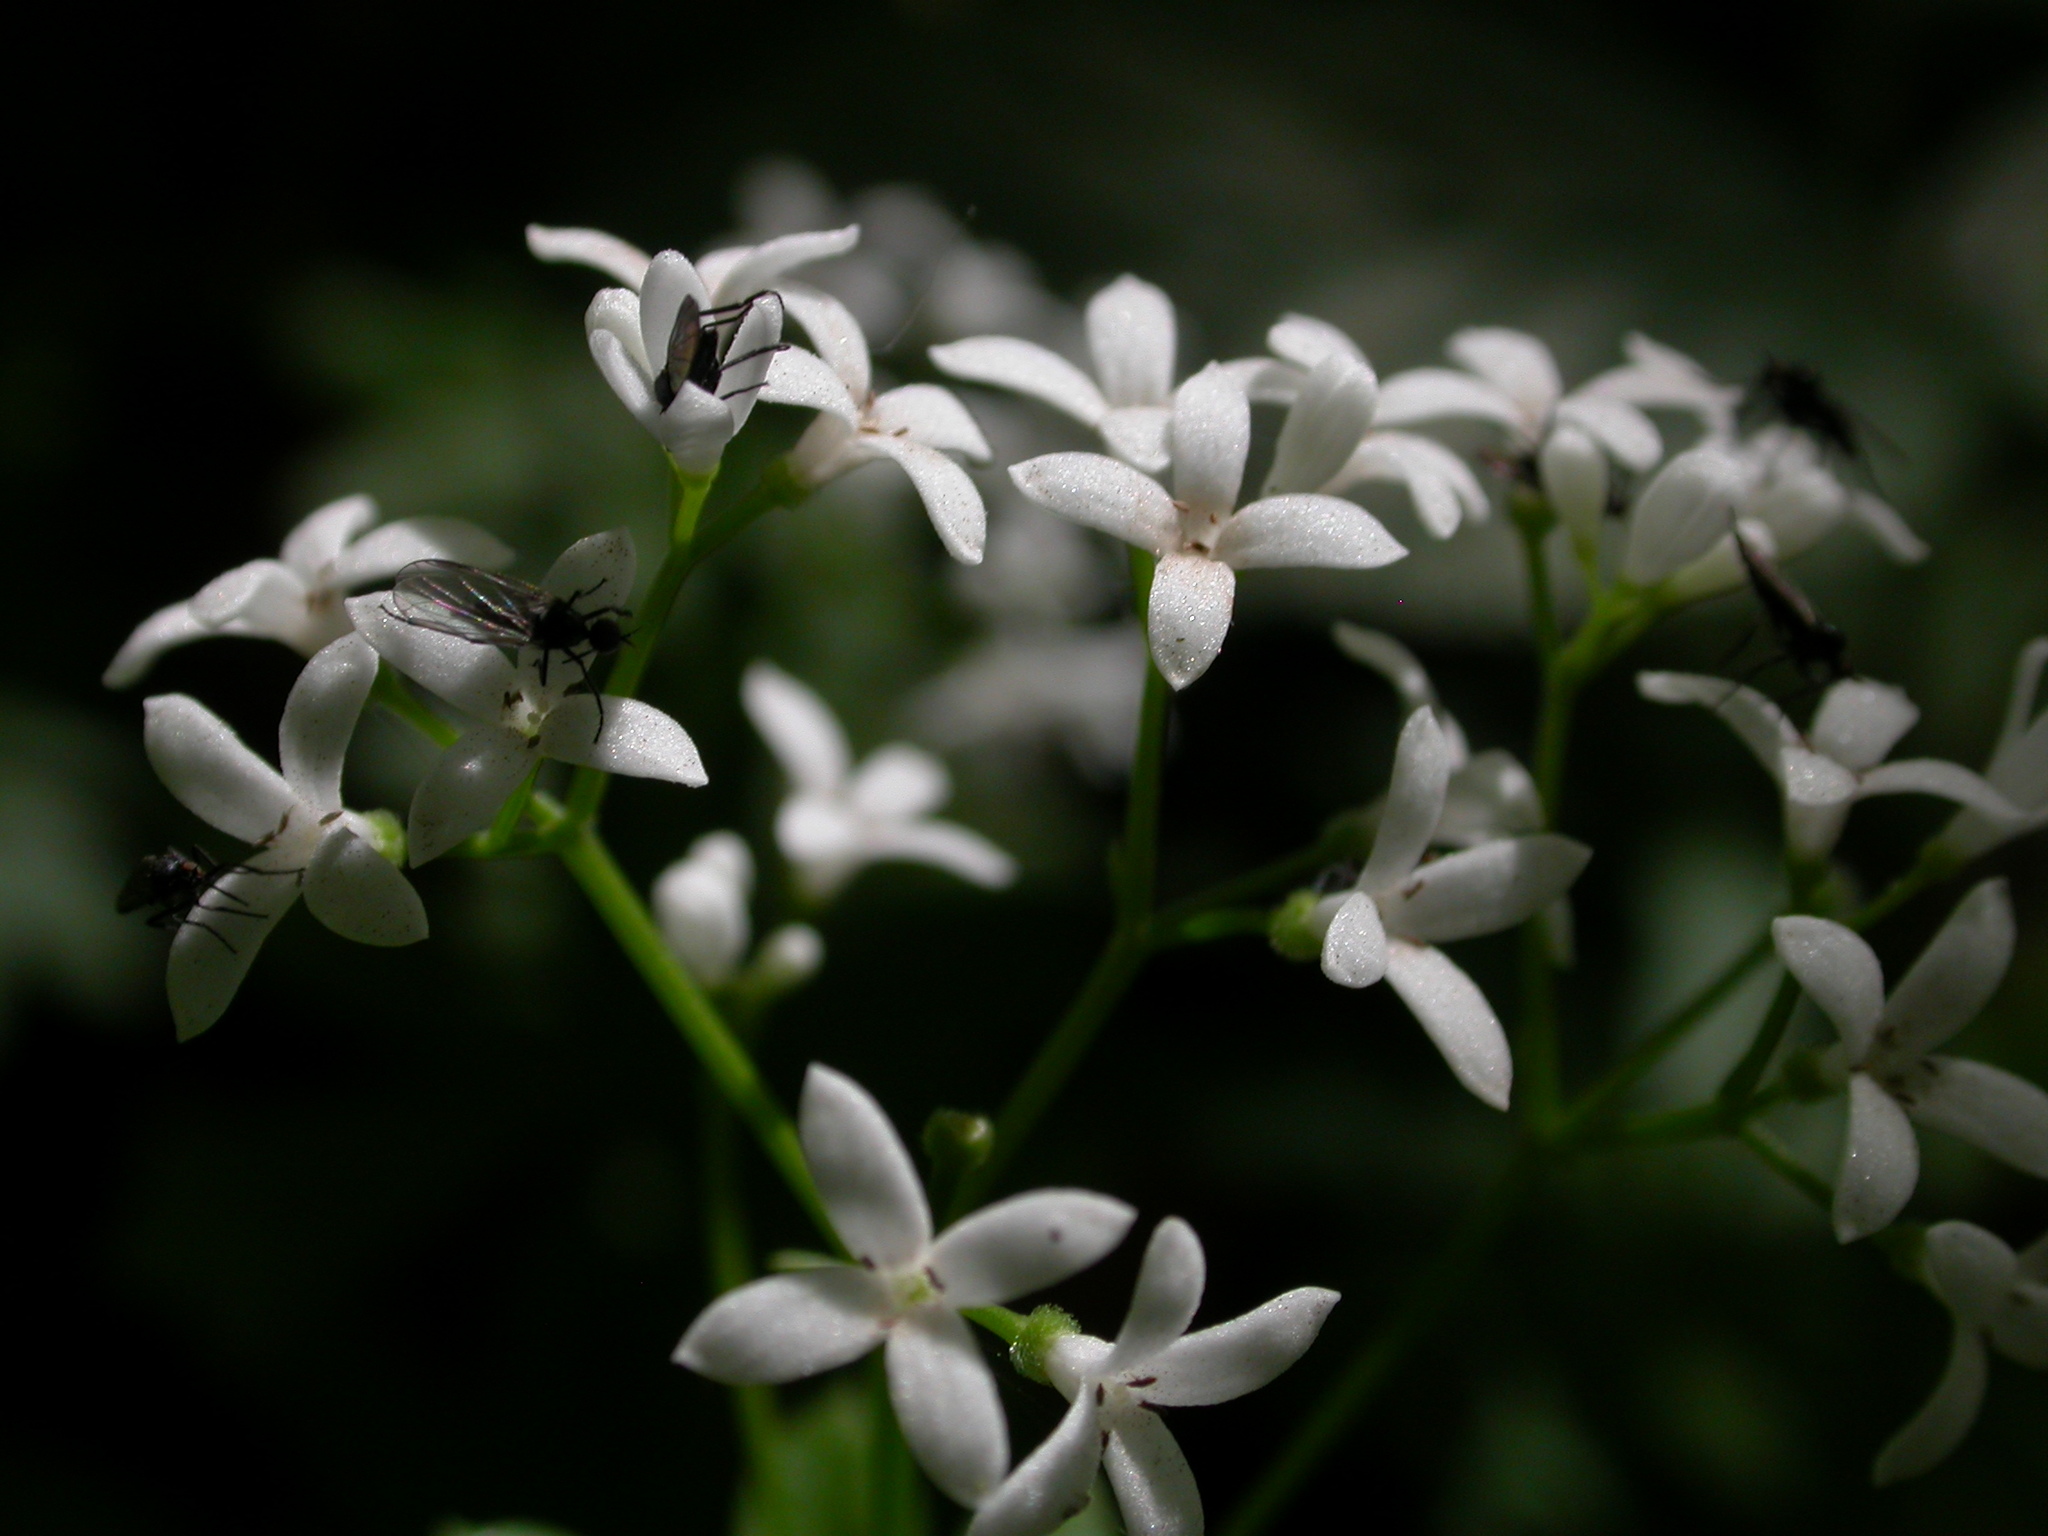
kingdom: Plantae
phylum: Tracheophyta
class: Magnoliopsida
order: Gentianales
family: Rubiaceae
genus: Galium
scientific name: Galium odoratum
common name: Sweet woodruff
